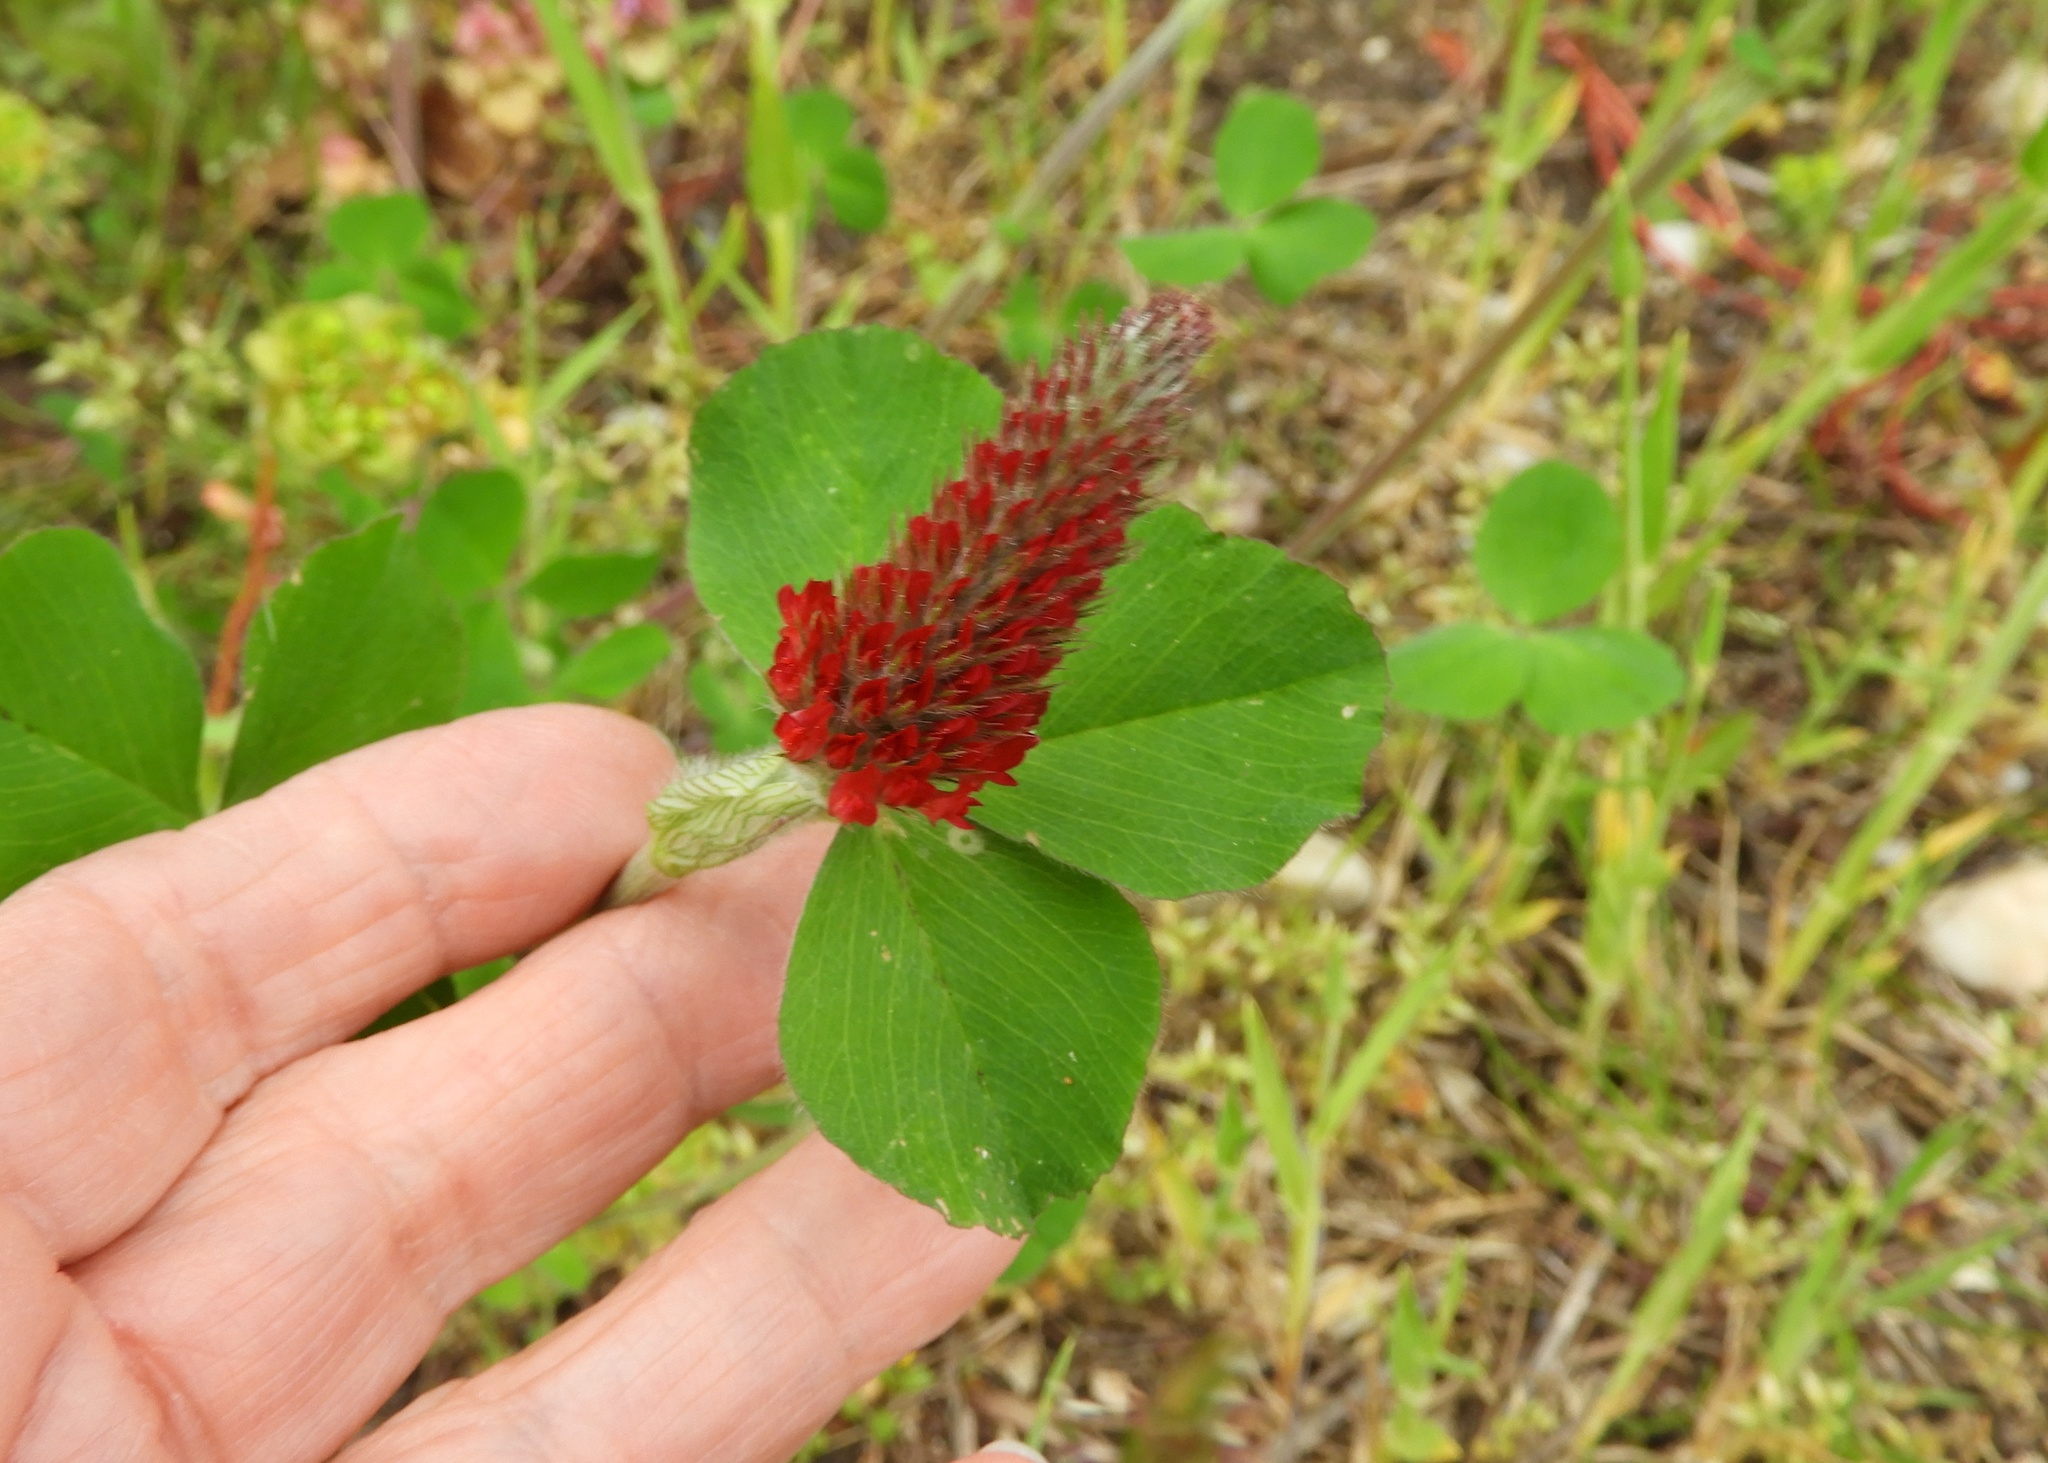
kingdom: Plantae
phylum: Tracheophyta
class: Magnoliopsida
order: Fabales
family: Fabaceae
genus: Trifolium
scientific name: Trifolium incarnatum
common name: Crimson clover
